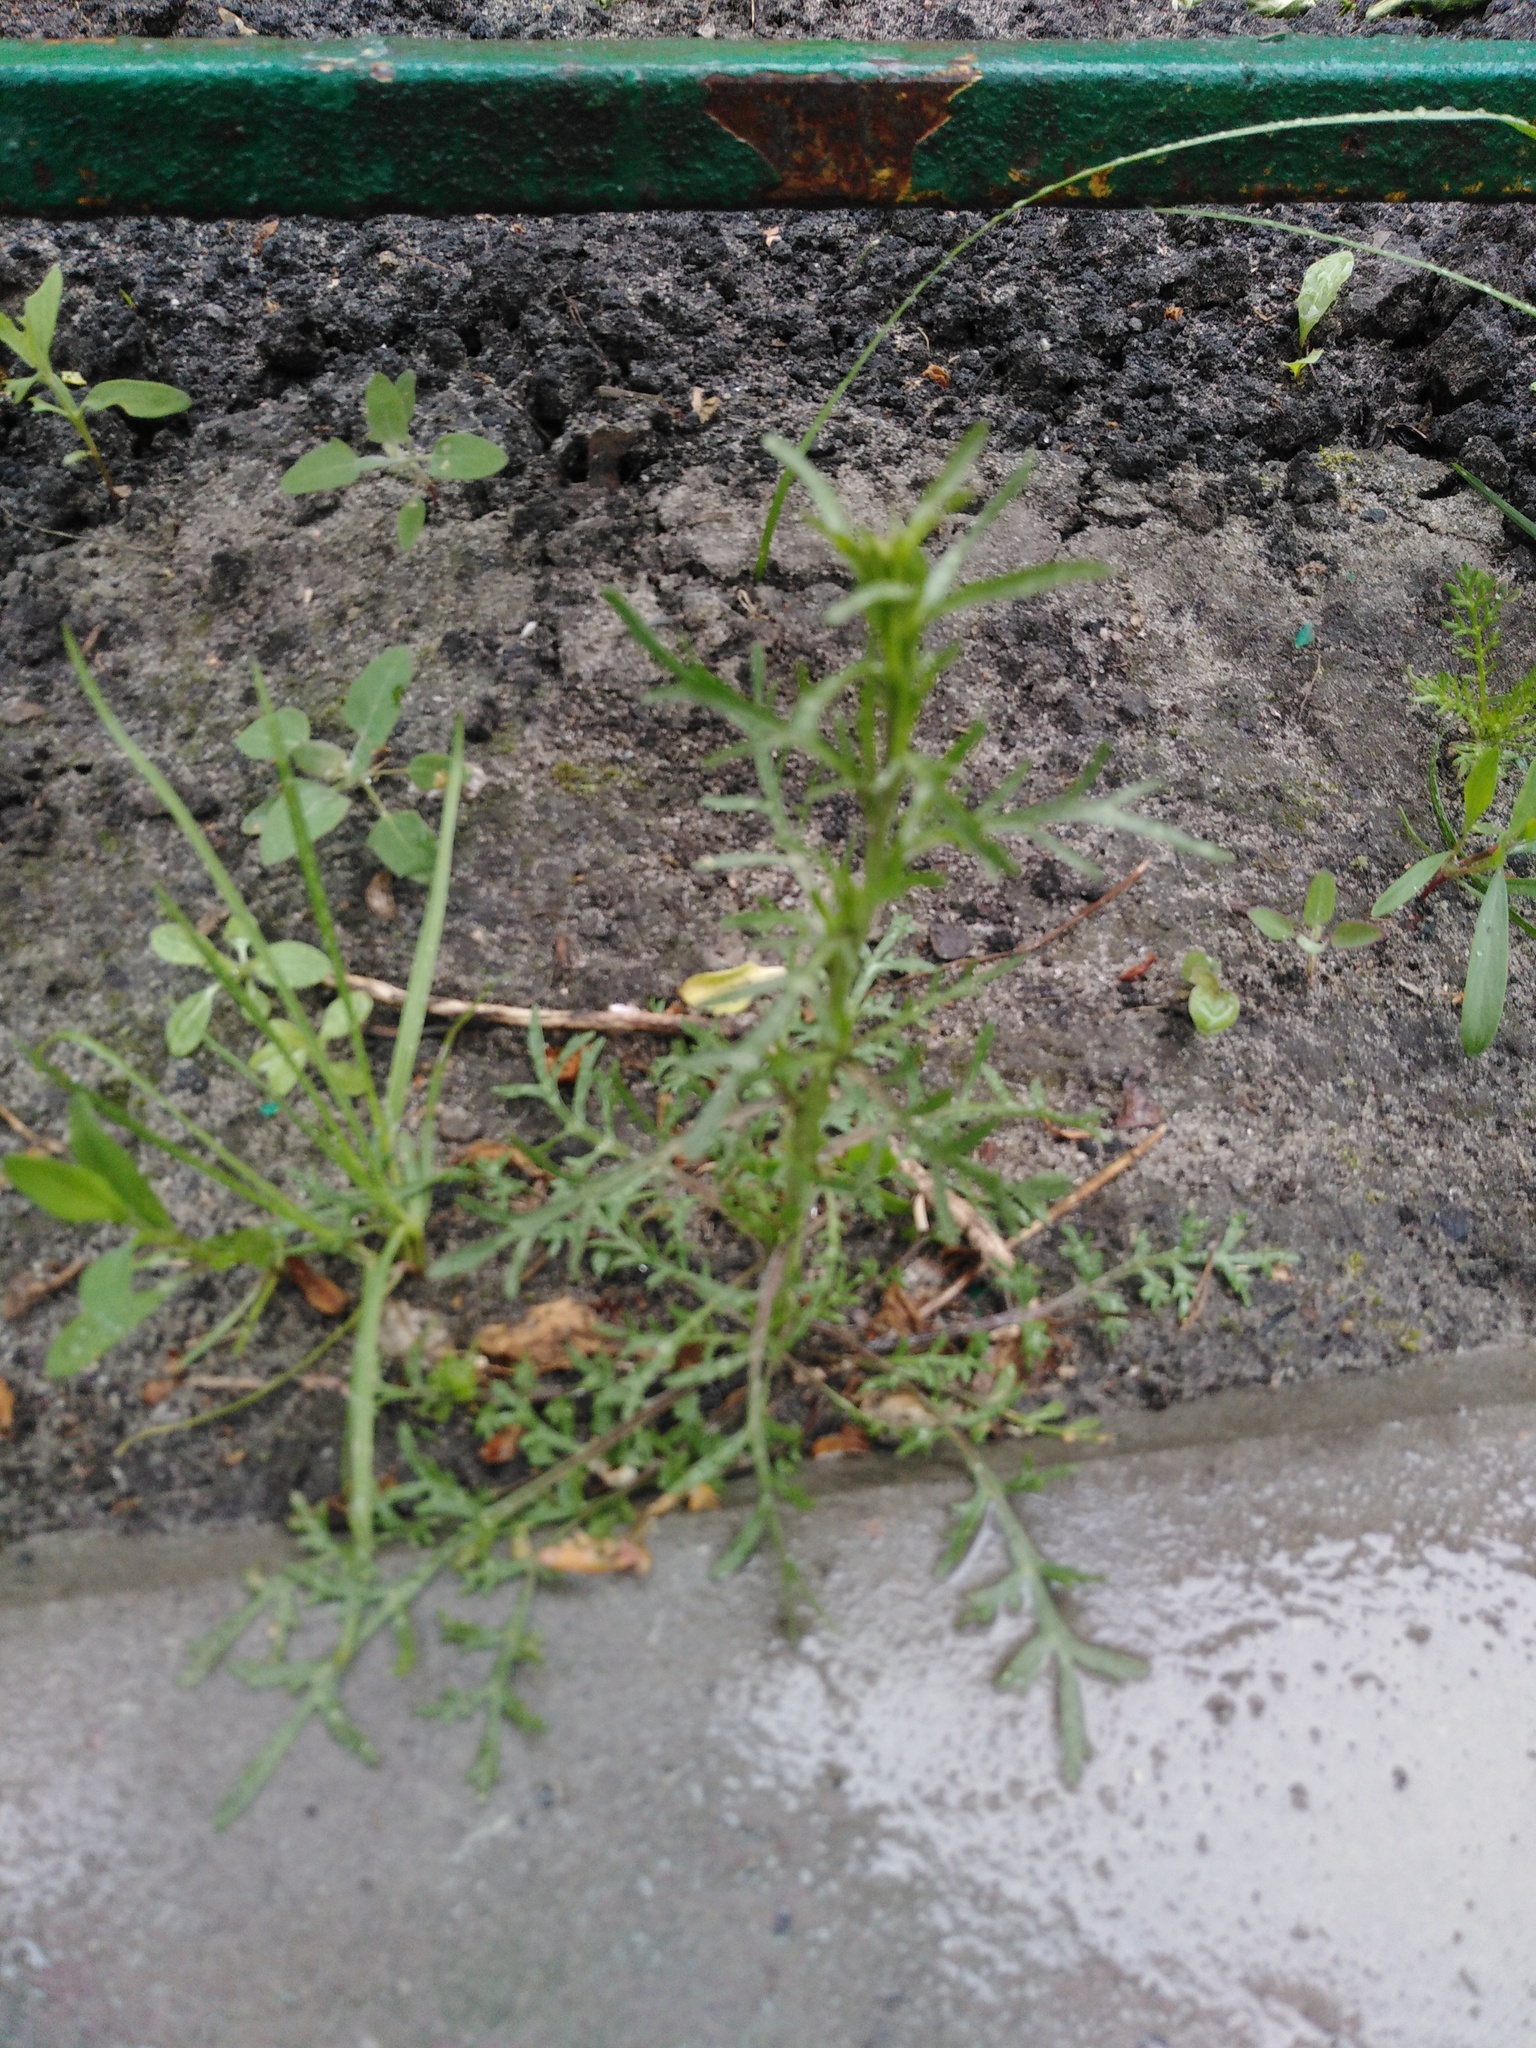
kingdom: Plantae
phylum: Tracheophyta
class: Magnoliopsida
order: Brassicales
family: Brassicaceae
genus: Lepidium
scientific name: Lepidium ruderale
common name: Narrow-leaved pepperwort
